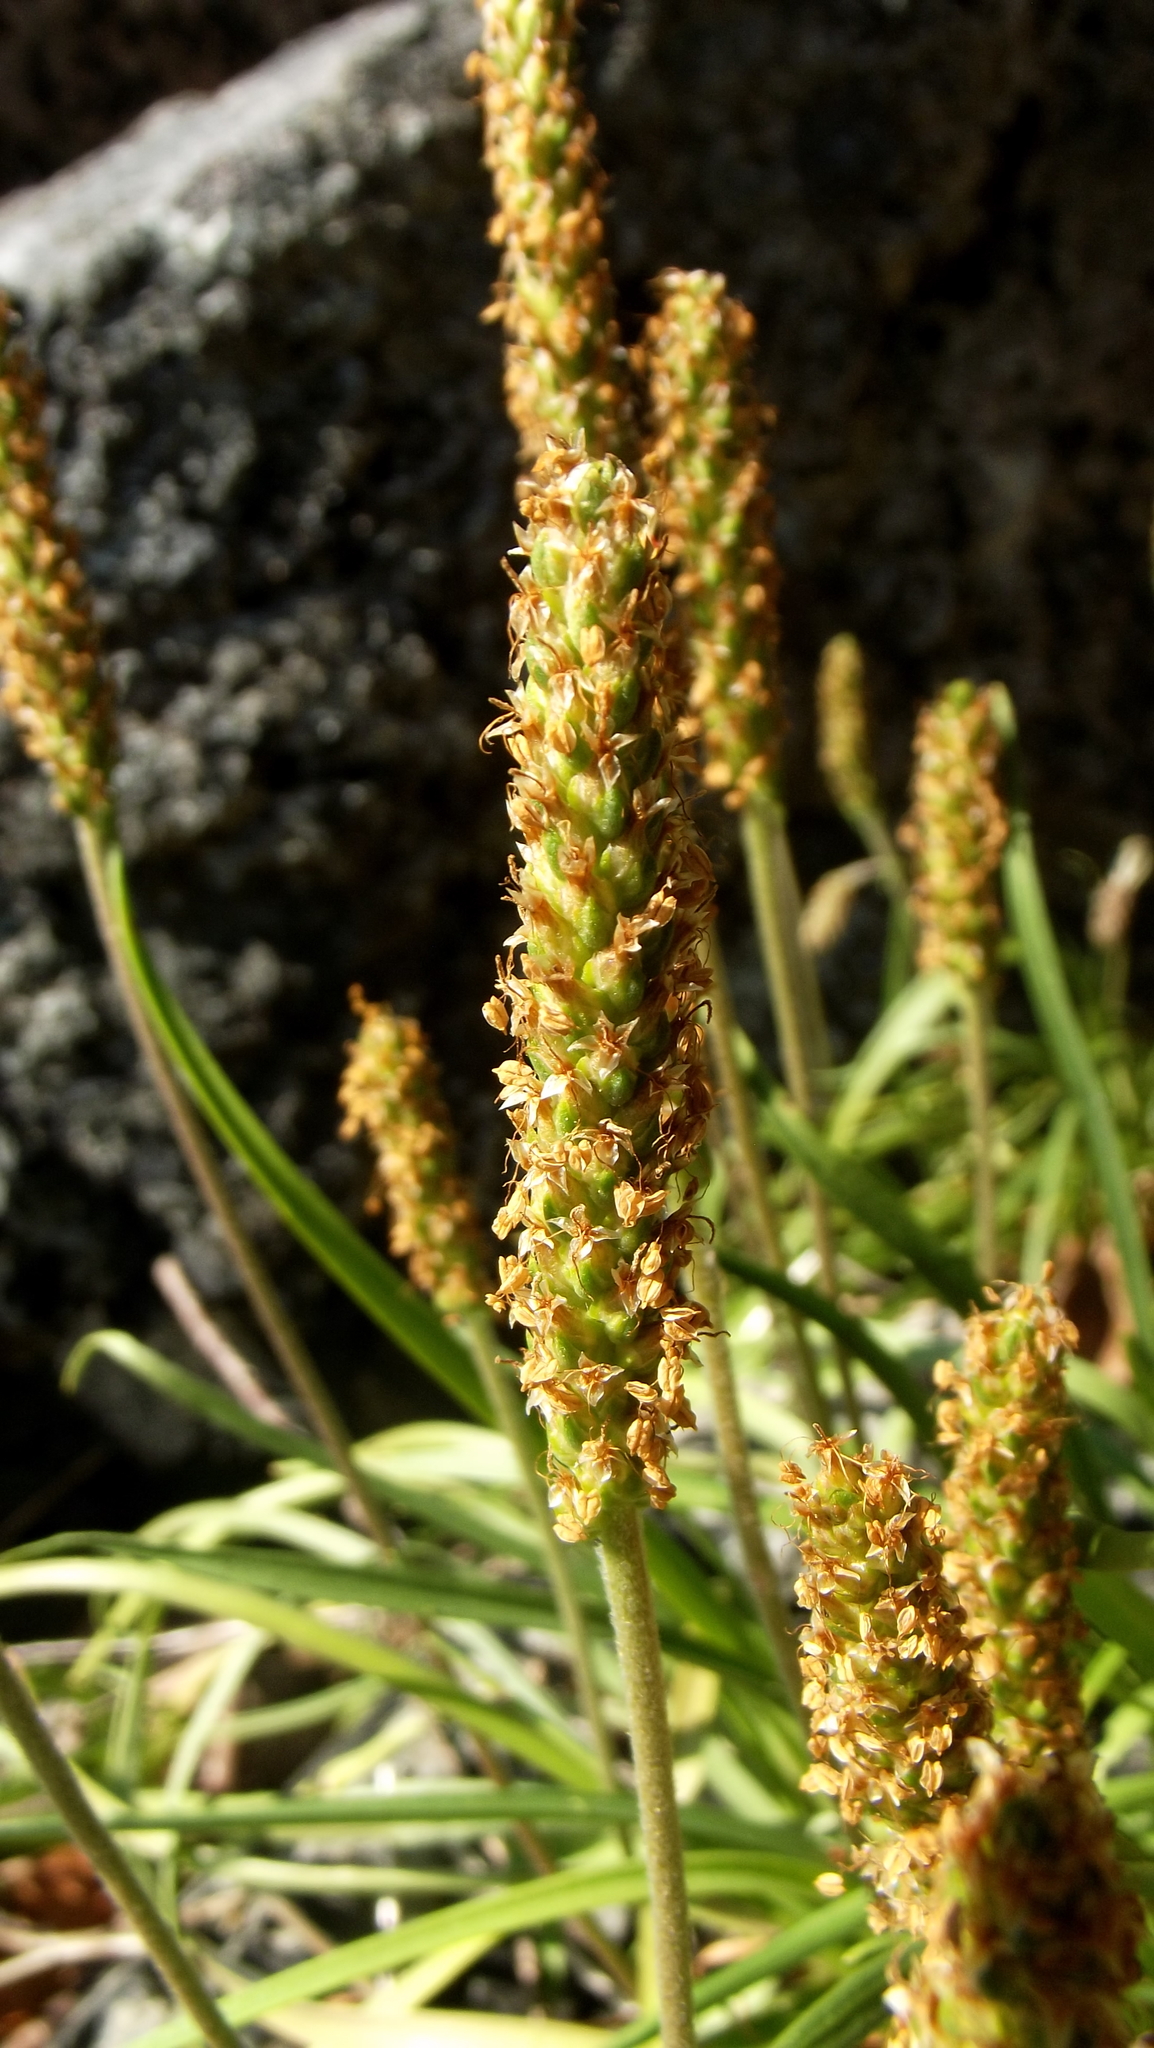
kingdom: Plantae
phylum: Tracheophyta
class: Magnoliopsida
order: Lamiales
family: Plantaginaceae
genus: Plantago
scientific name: Plantago maritima
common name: Sea plantain
